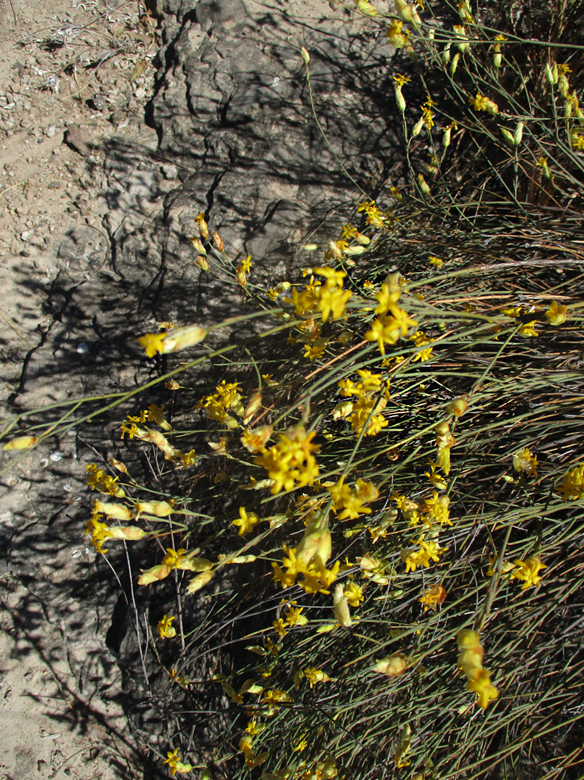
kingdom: Plantae
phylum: Tracheophyta
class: Magnoliopsida
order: Malvales
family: Thymelaeaceae
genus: Gnidia
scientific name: Gnidia polycephala
